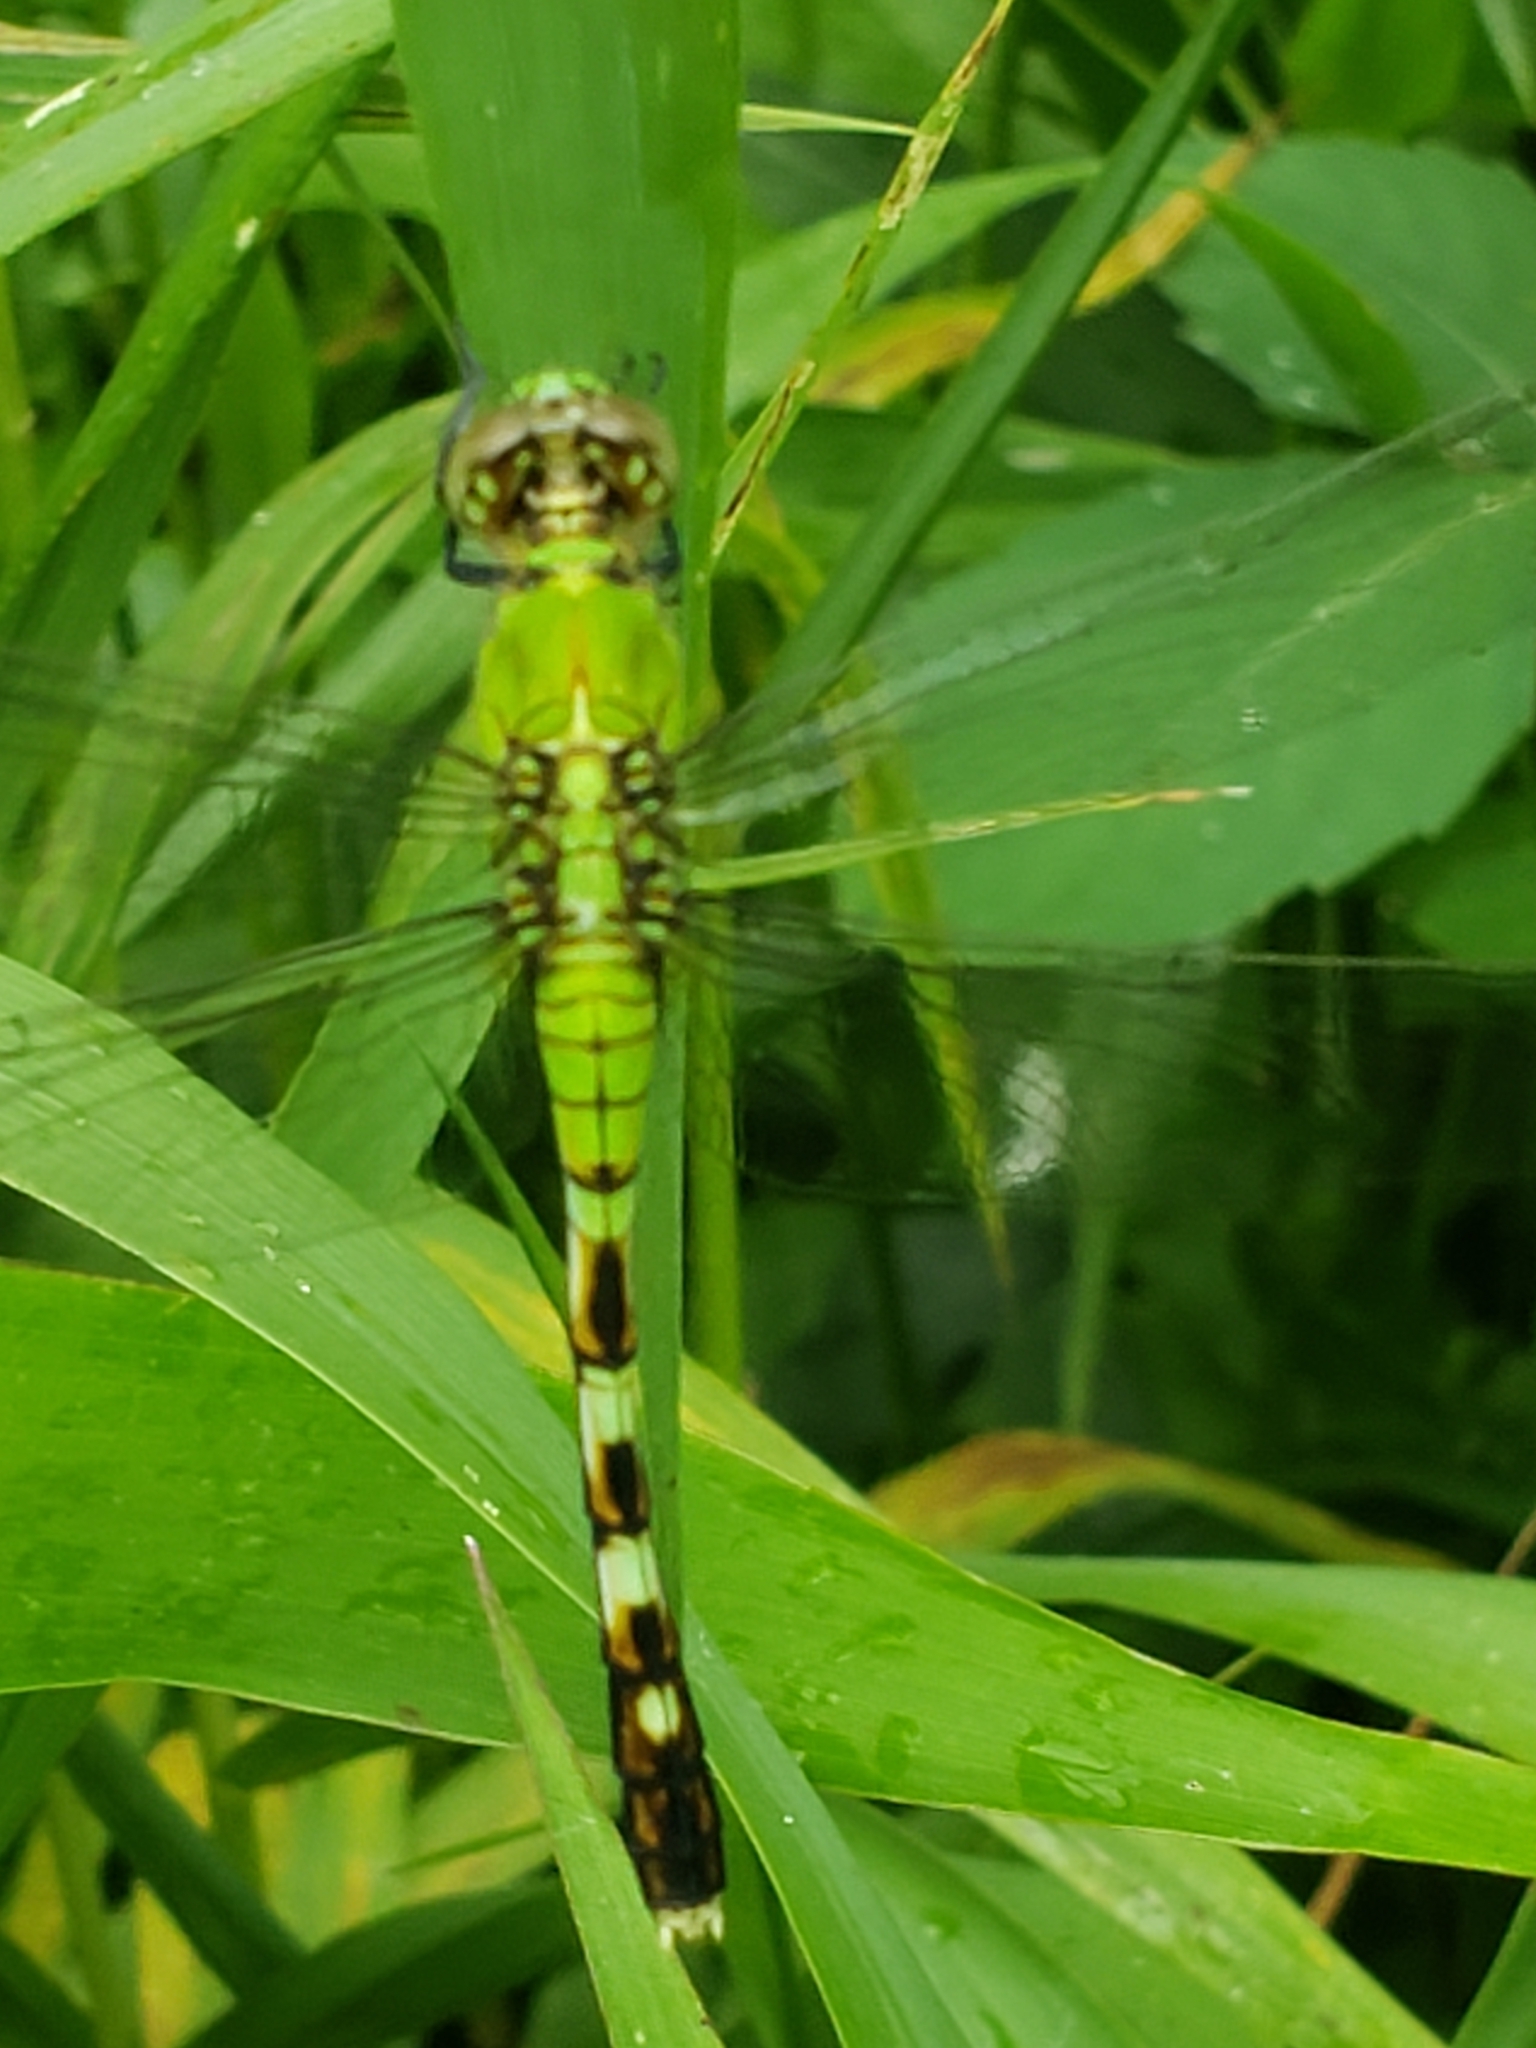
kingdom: Animalia
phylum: Arthropoda
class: Insecta
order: Odonata
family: Libellulidae
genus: Erythemis
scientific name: Erythemis simplicicollis
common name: Eastern pondhawk
